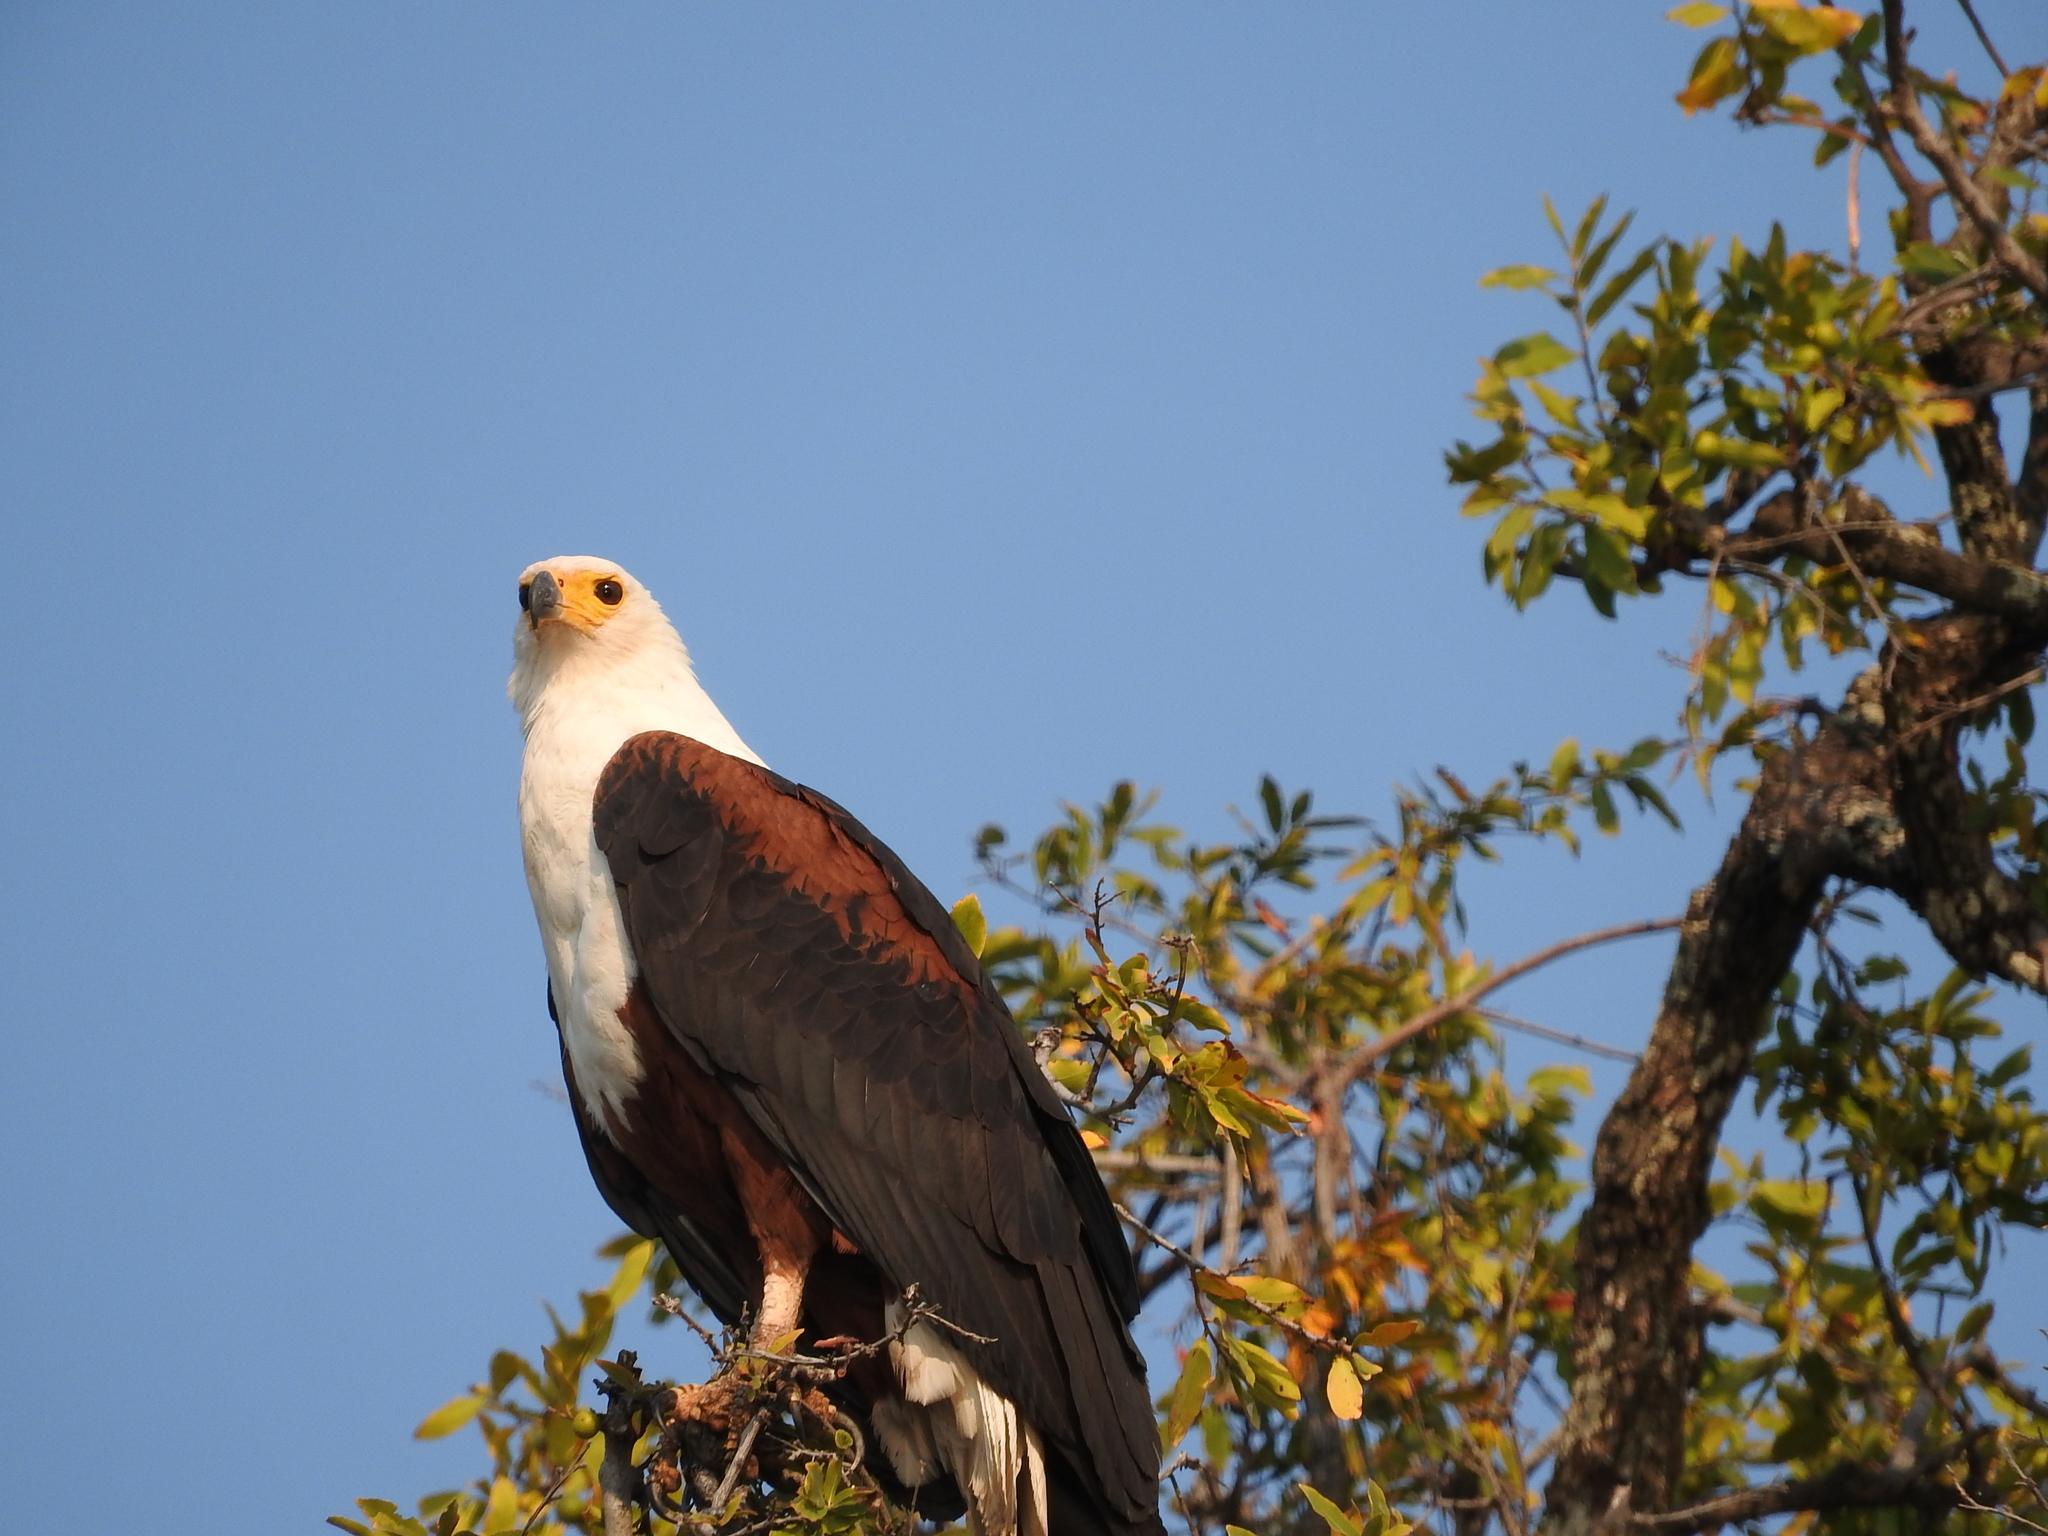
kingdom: Animalia
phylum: Chordata
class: Aves
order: Accipitriformes
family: Accipitridae
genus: Haliaeetus
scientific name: Haliaeetus vocifer
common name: African fish eagle
